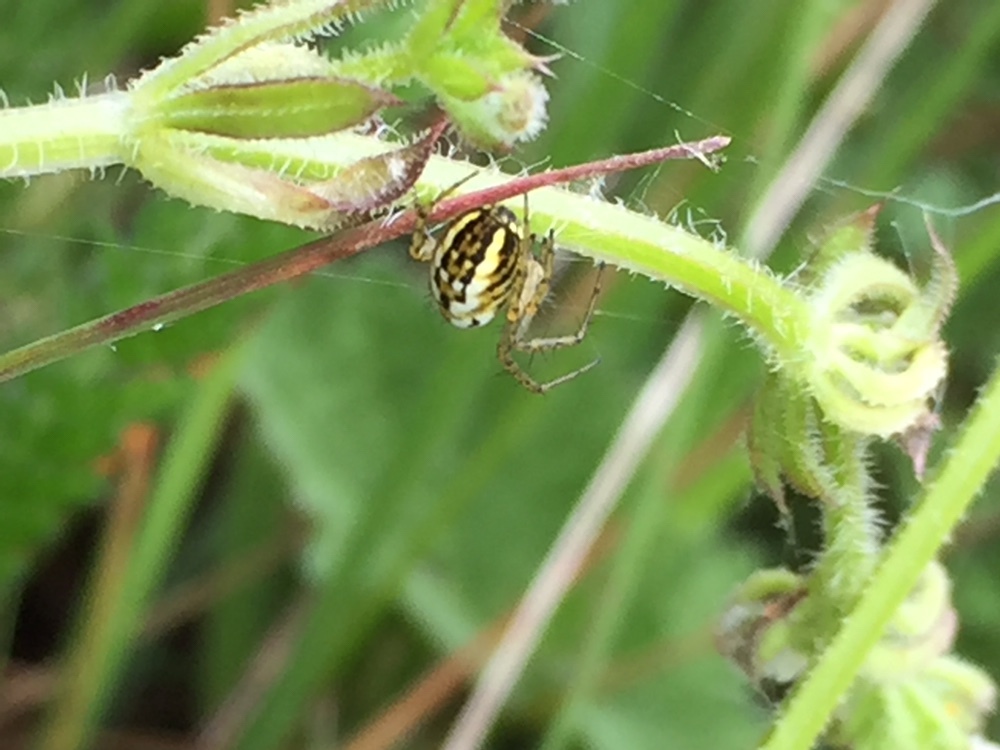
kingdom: Animalia
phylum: Arthropoda
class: Arachnida
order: Araneae
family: Araneidae
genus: Mangora
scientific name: Mangora acalypha
